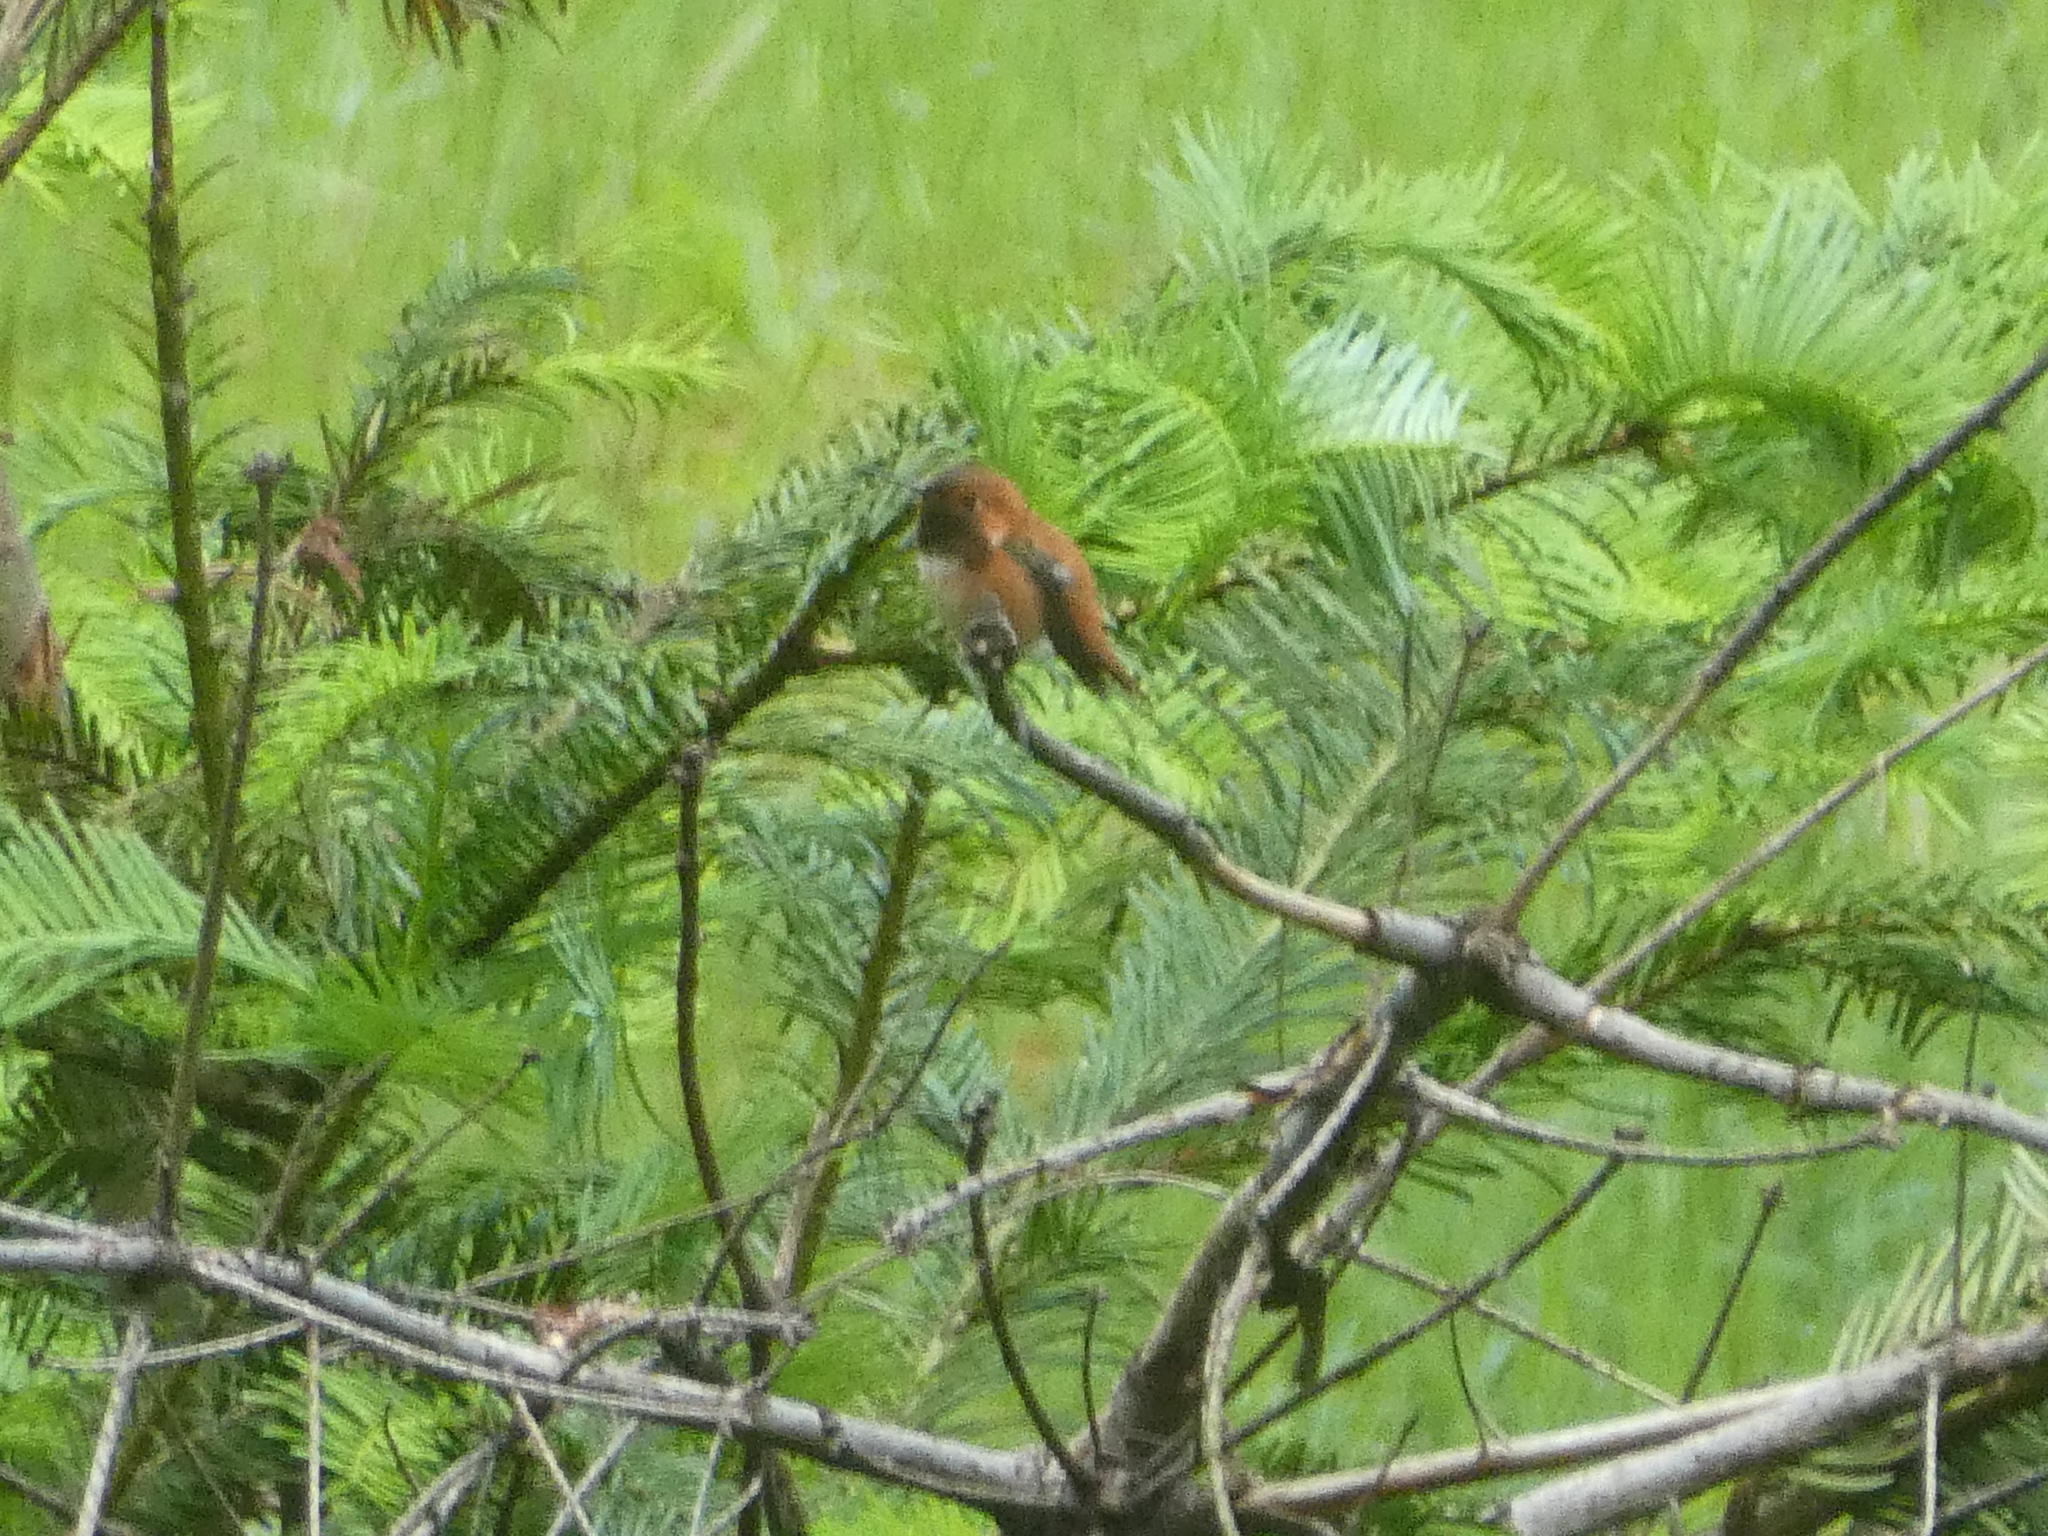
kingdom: Animalia
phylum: Chordata
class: Aves
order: Apodiformes
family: Trochilidae
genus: Selasphorus
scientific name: Selasphorus rufus
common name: Rufous hummingbird
